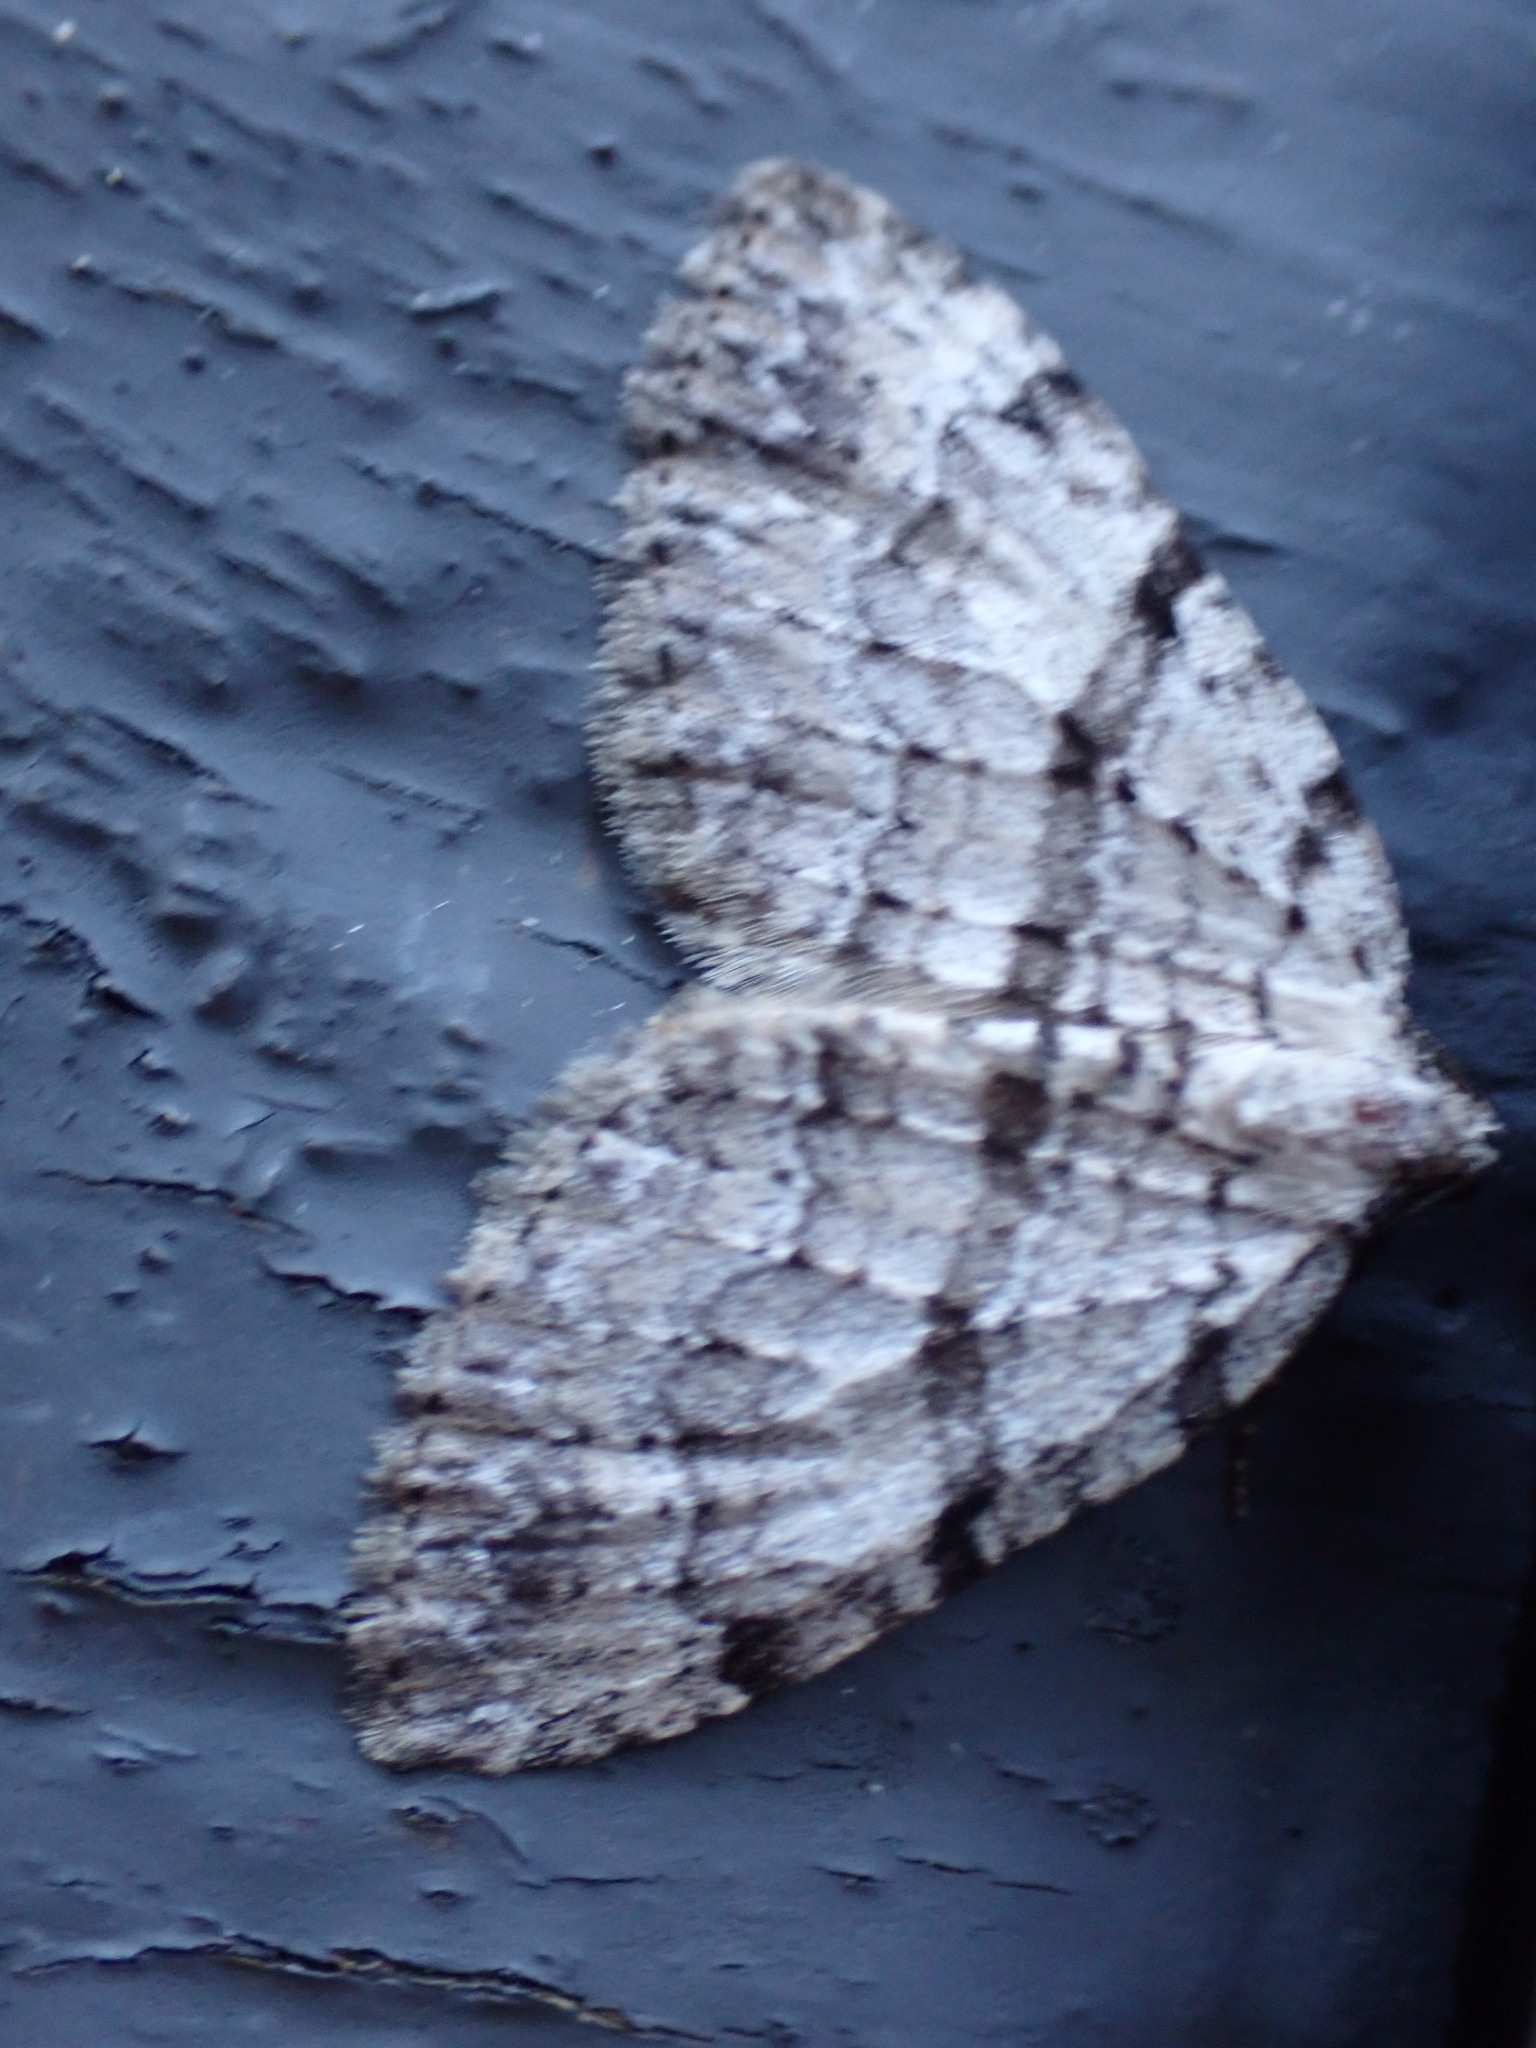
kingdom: Animalia
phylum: Arthropoda
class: Insecta
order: Lepidoptera
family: Geometridae
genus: Perizoma
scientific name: Perizoma curvilinea
